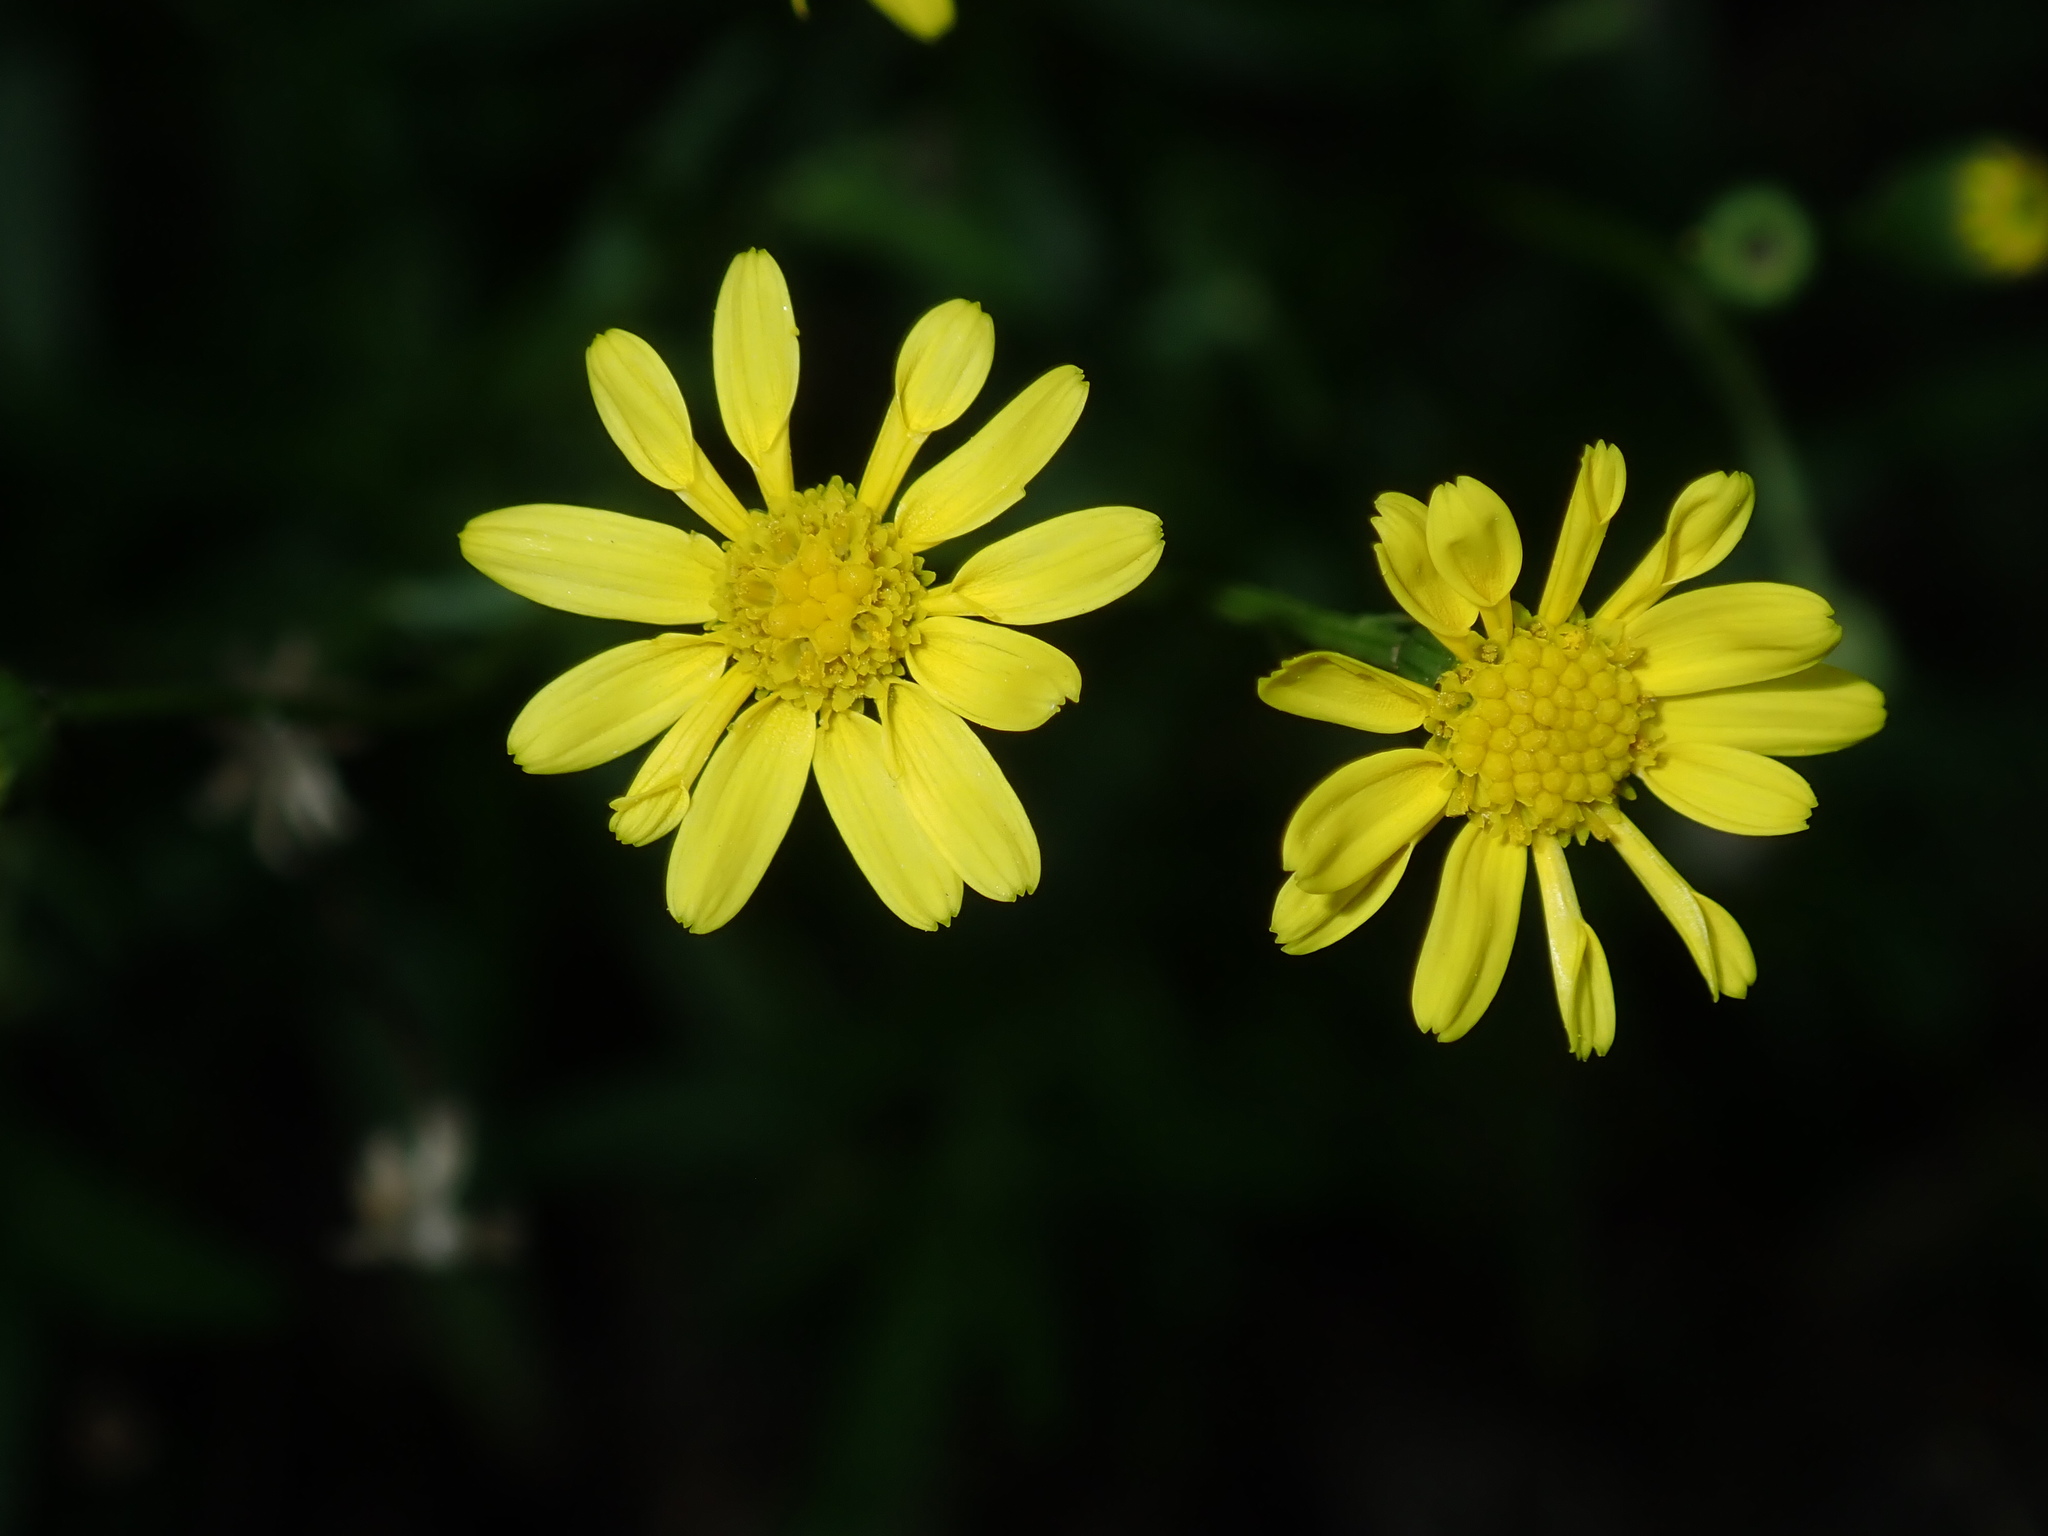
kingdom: Plantae
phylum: Tracheophyta
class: Magnoliopsida
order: Asterales
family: Asteraceae
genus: Senecio
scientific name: Senecio madagascariensis
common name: Madagascar ragwort
